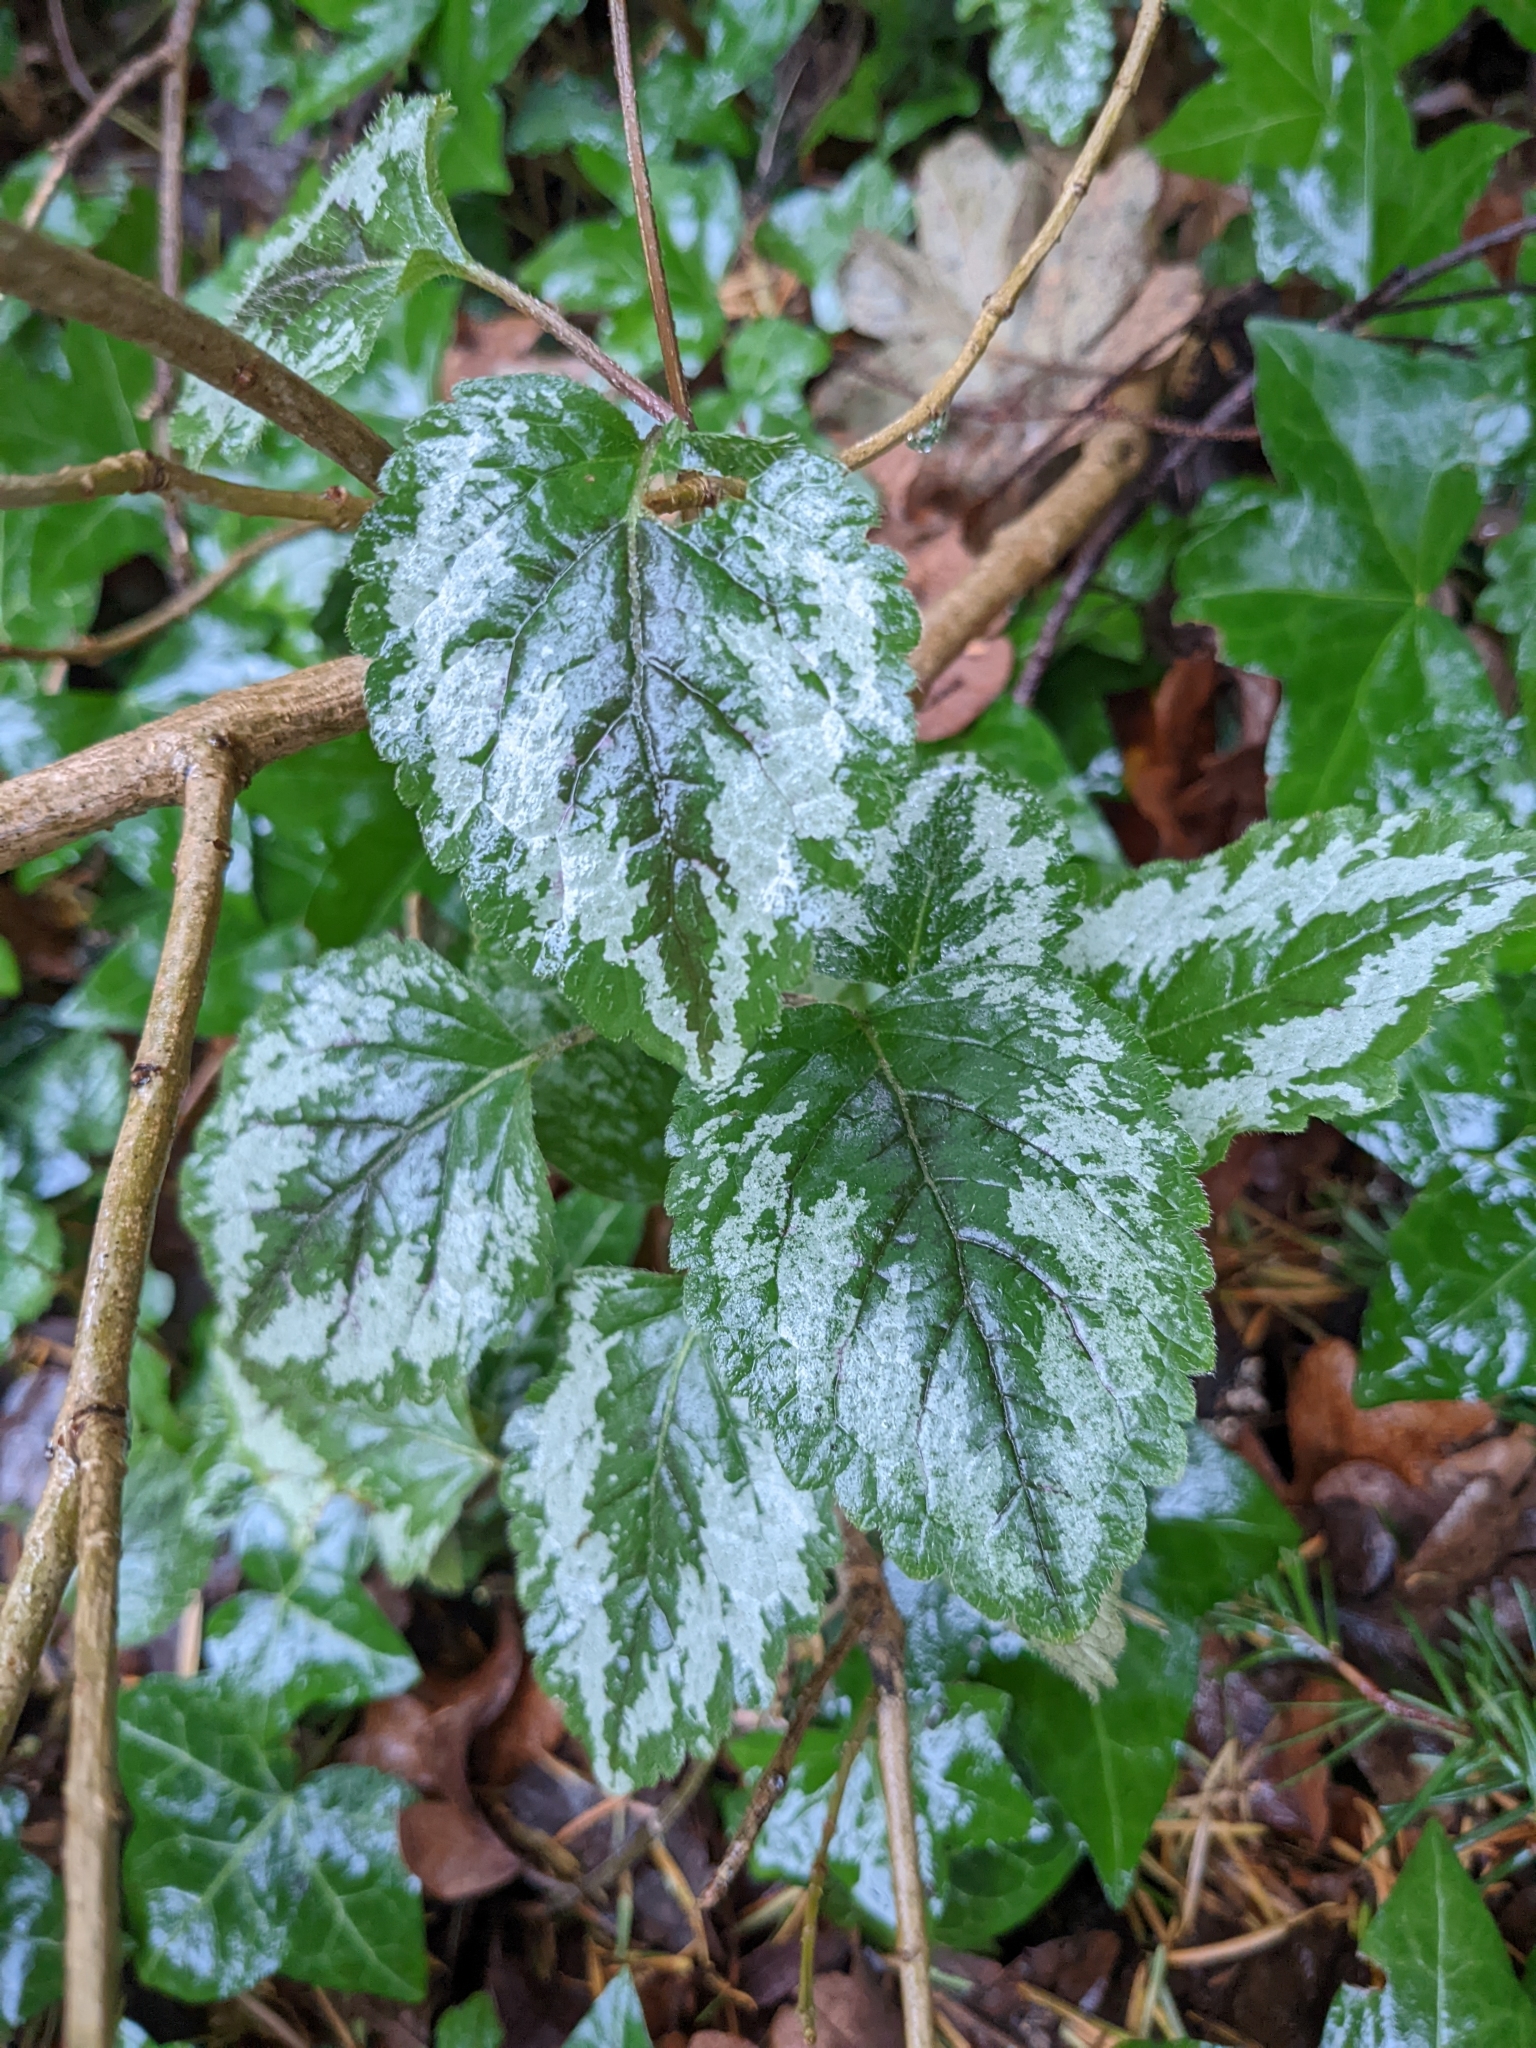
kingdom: Plantae
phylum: Tracheophyta
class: Magnoliopsida
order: Lamiales
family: Lamiaceae
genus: Lamium
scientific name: Lamium galeobdolon
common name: Yellow archangel
